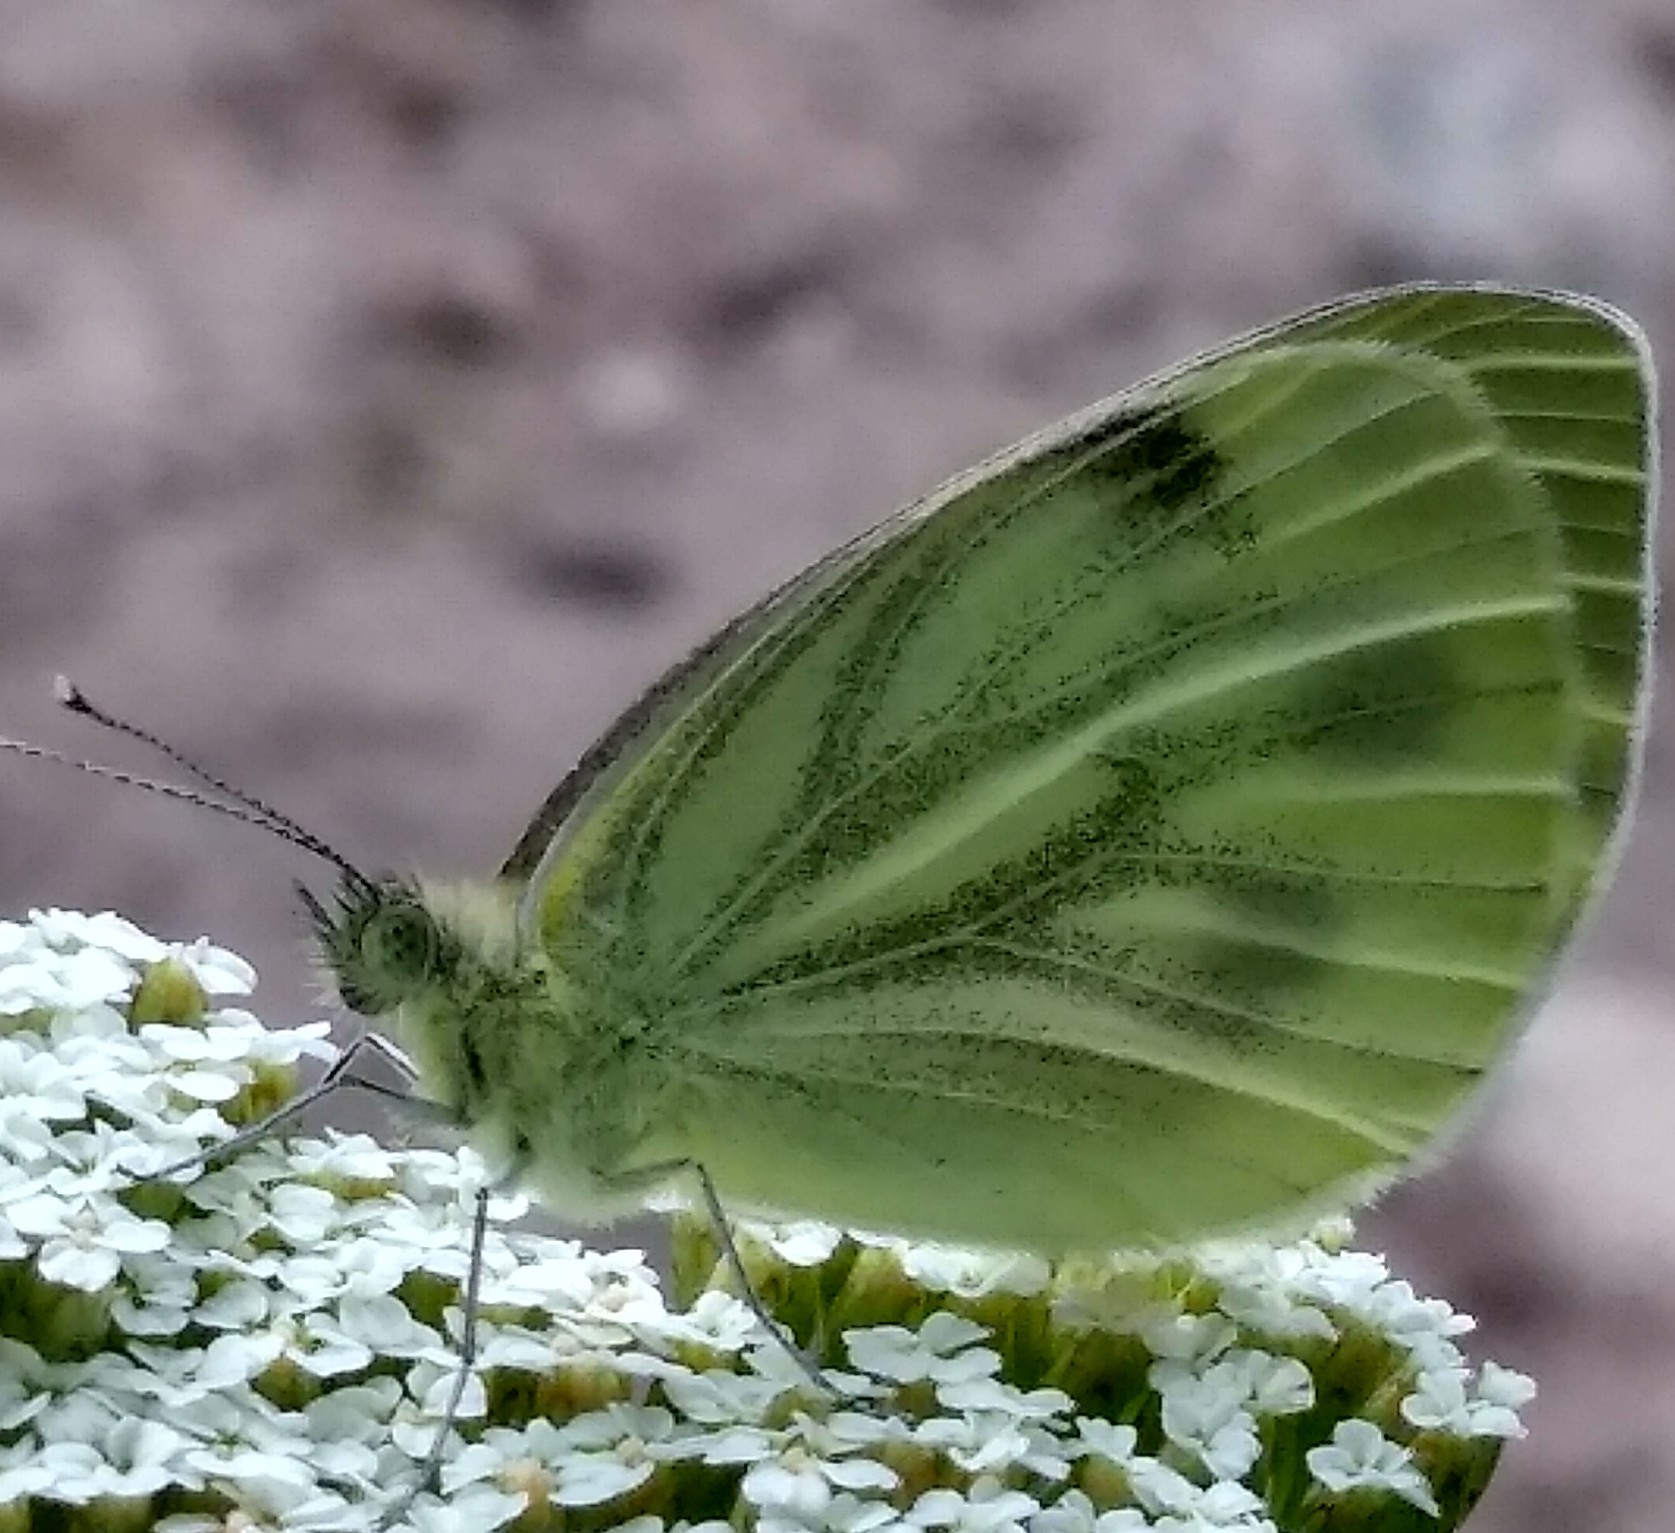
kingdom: Animalia
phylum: Arthropoda
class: Insecta
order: Lepidoptera
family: Pieridae
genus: Pieris
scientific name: Pieris napi
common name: Green-veined white
